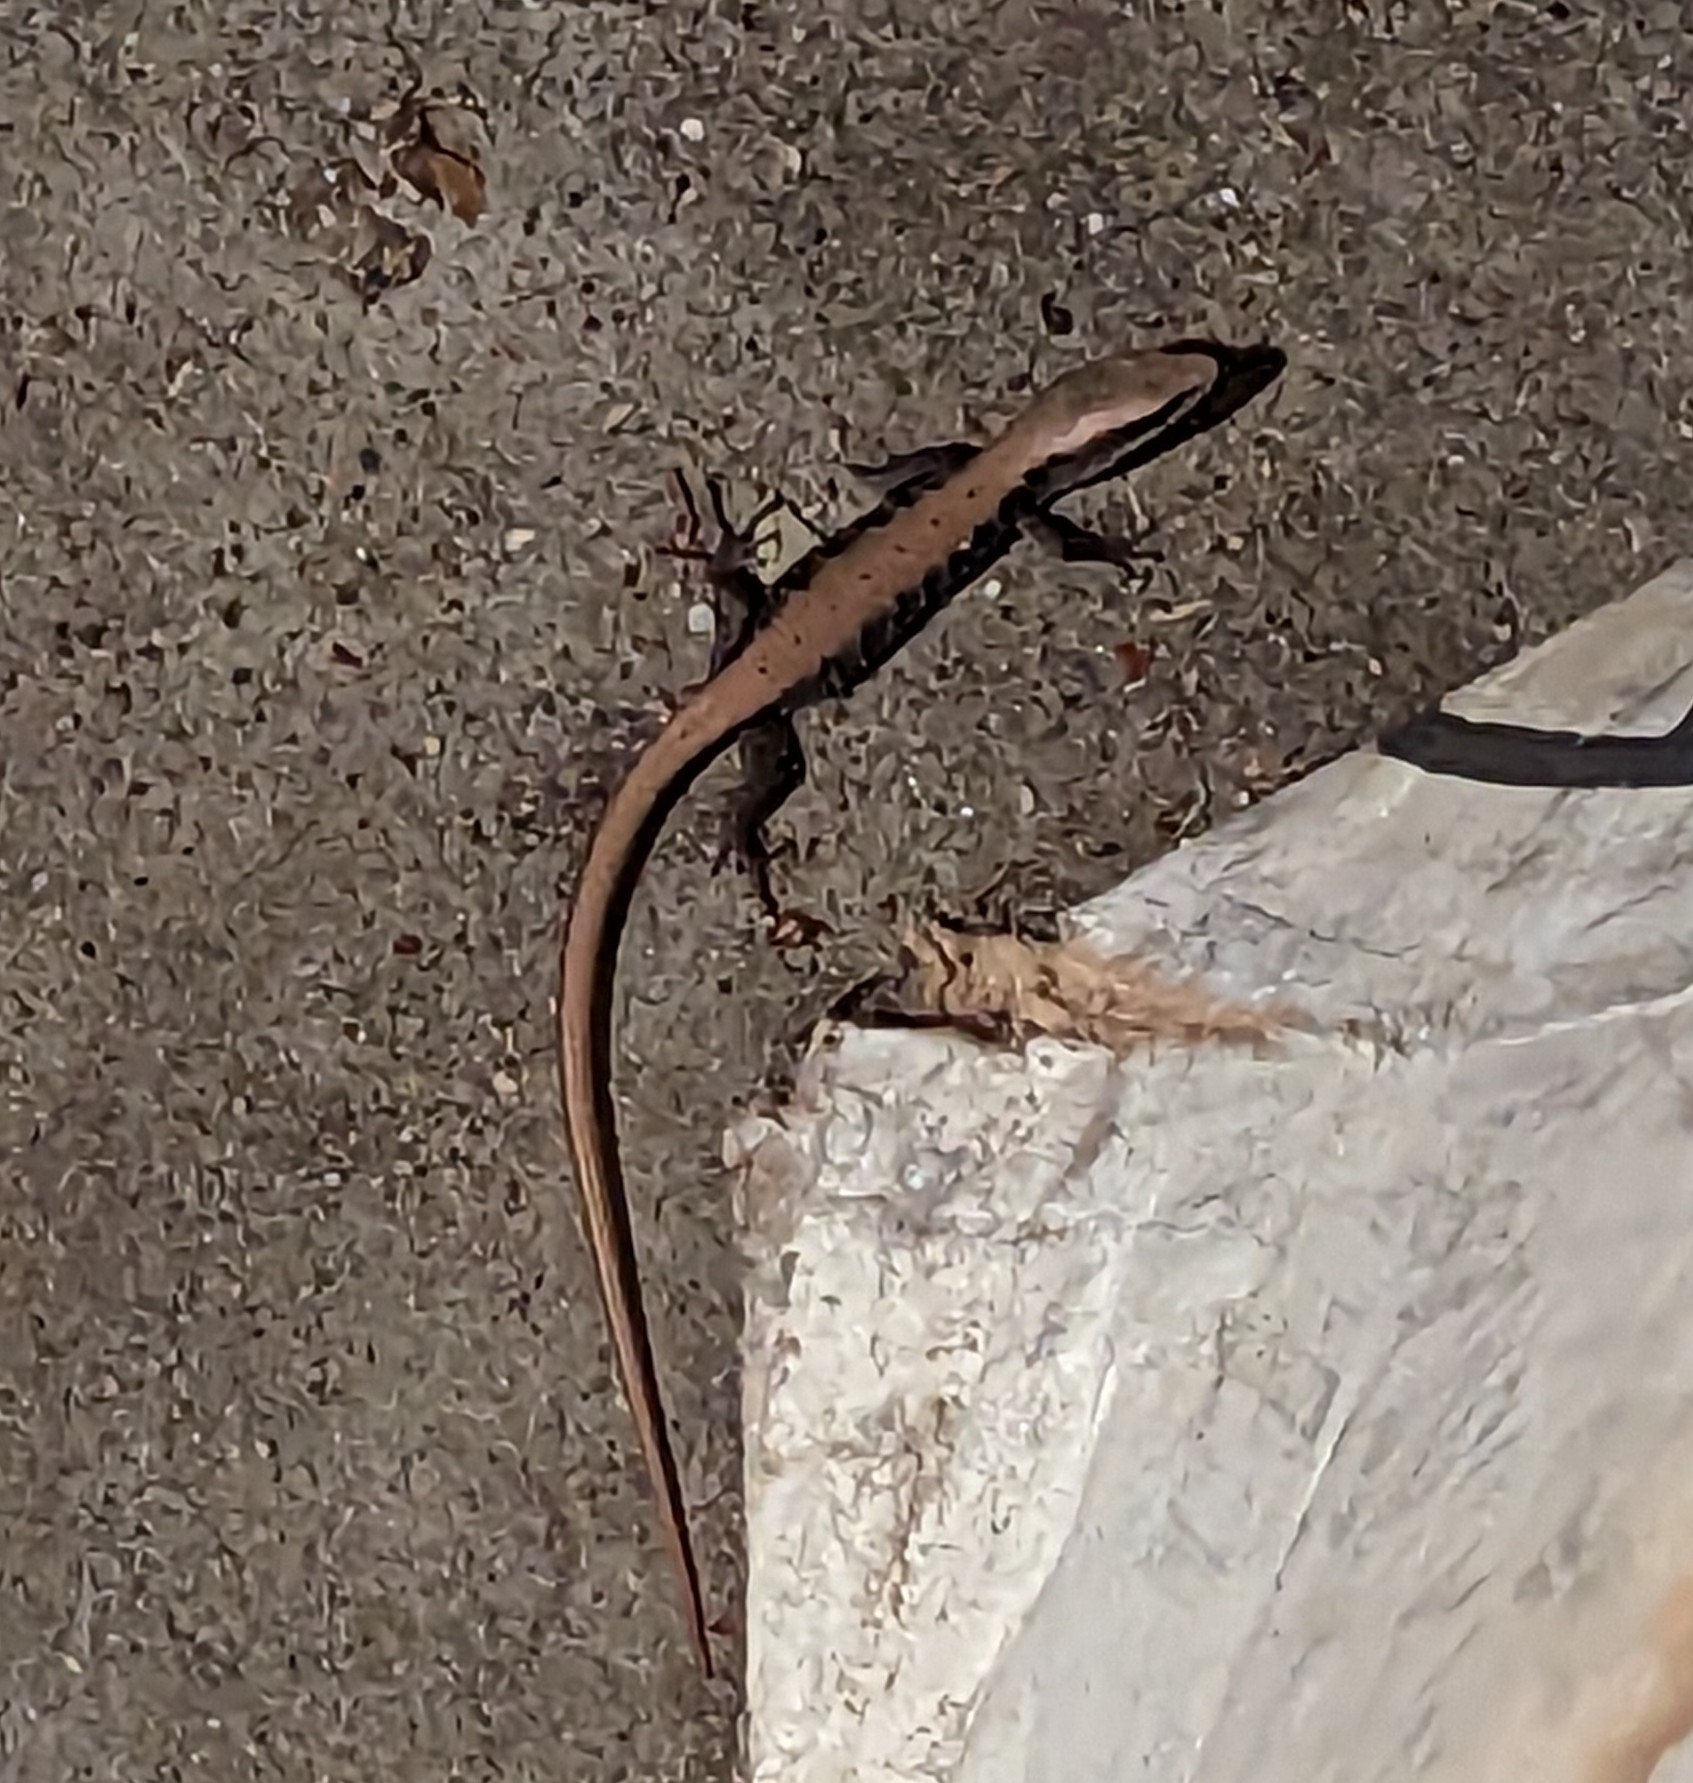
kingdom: Animalia
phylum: Chordata
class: Squamata
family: Anguidae
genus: Elgaria
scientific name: Elgaria multicarinata
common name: Southern alligator lizard
